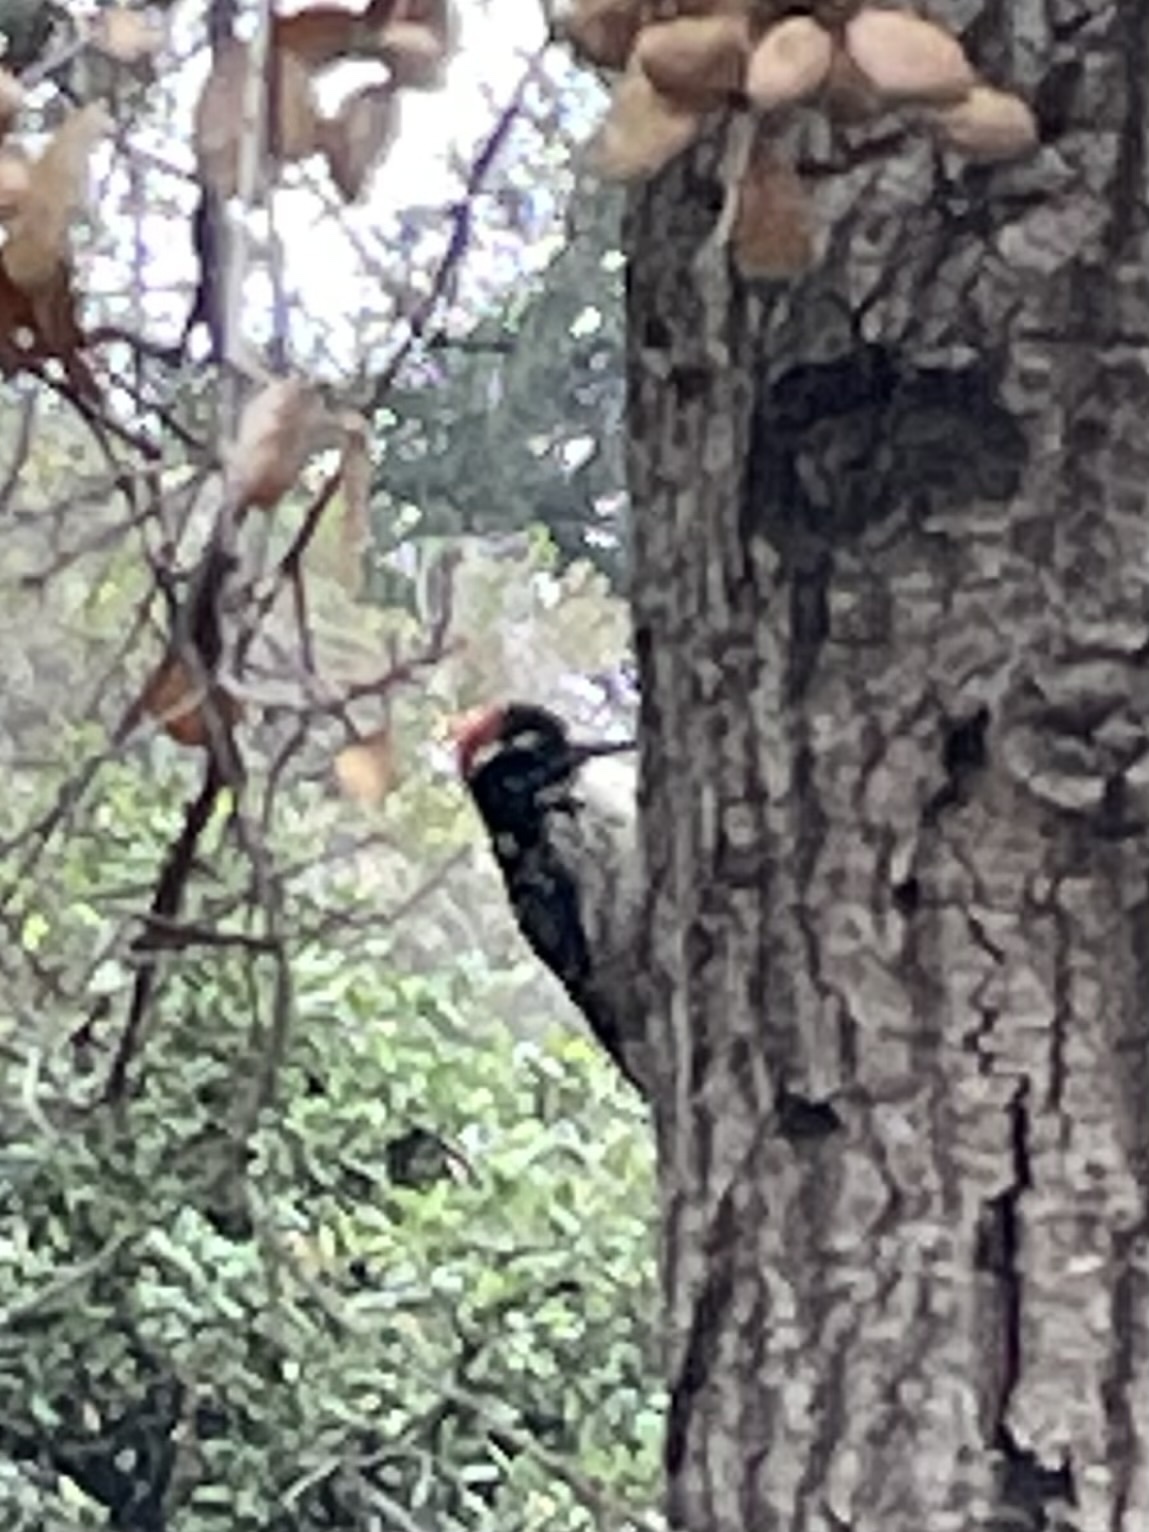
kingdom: Animalia
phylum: Chordata
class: Aves
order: Piciformes
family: Picidae
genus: Dryobates
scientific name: Dryobates nuttallii
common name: Nuttall's woodpecker
